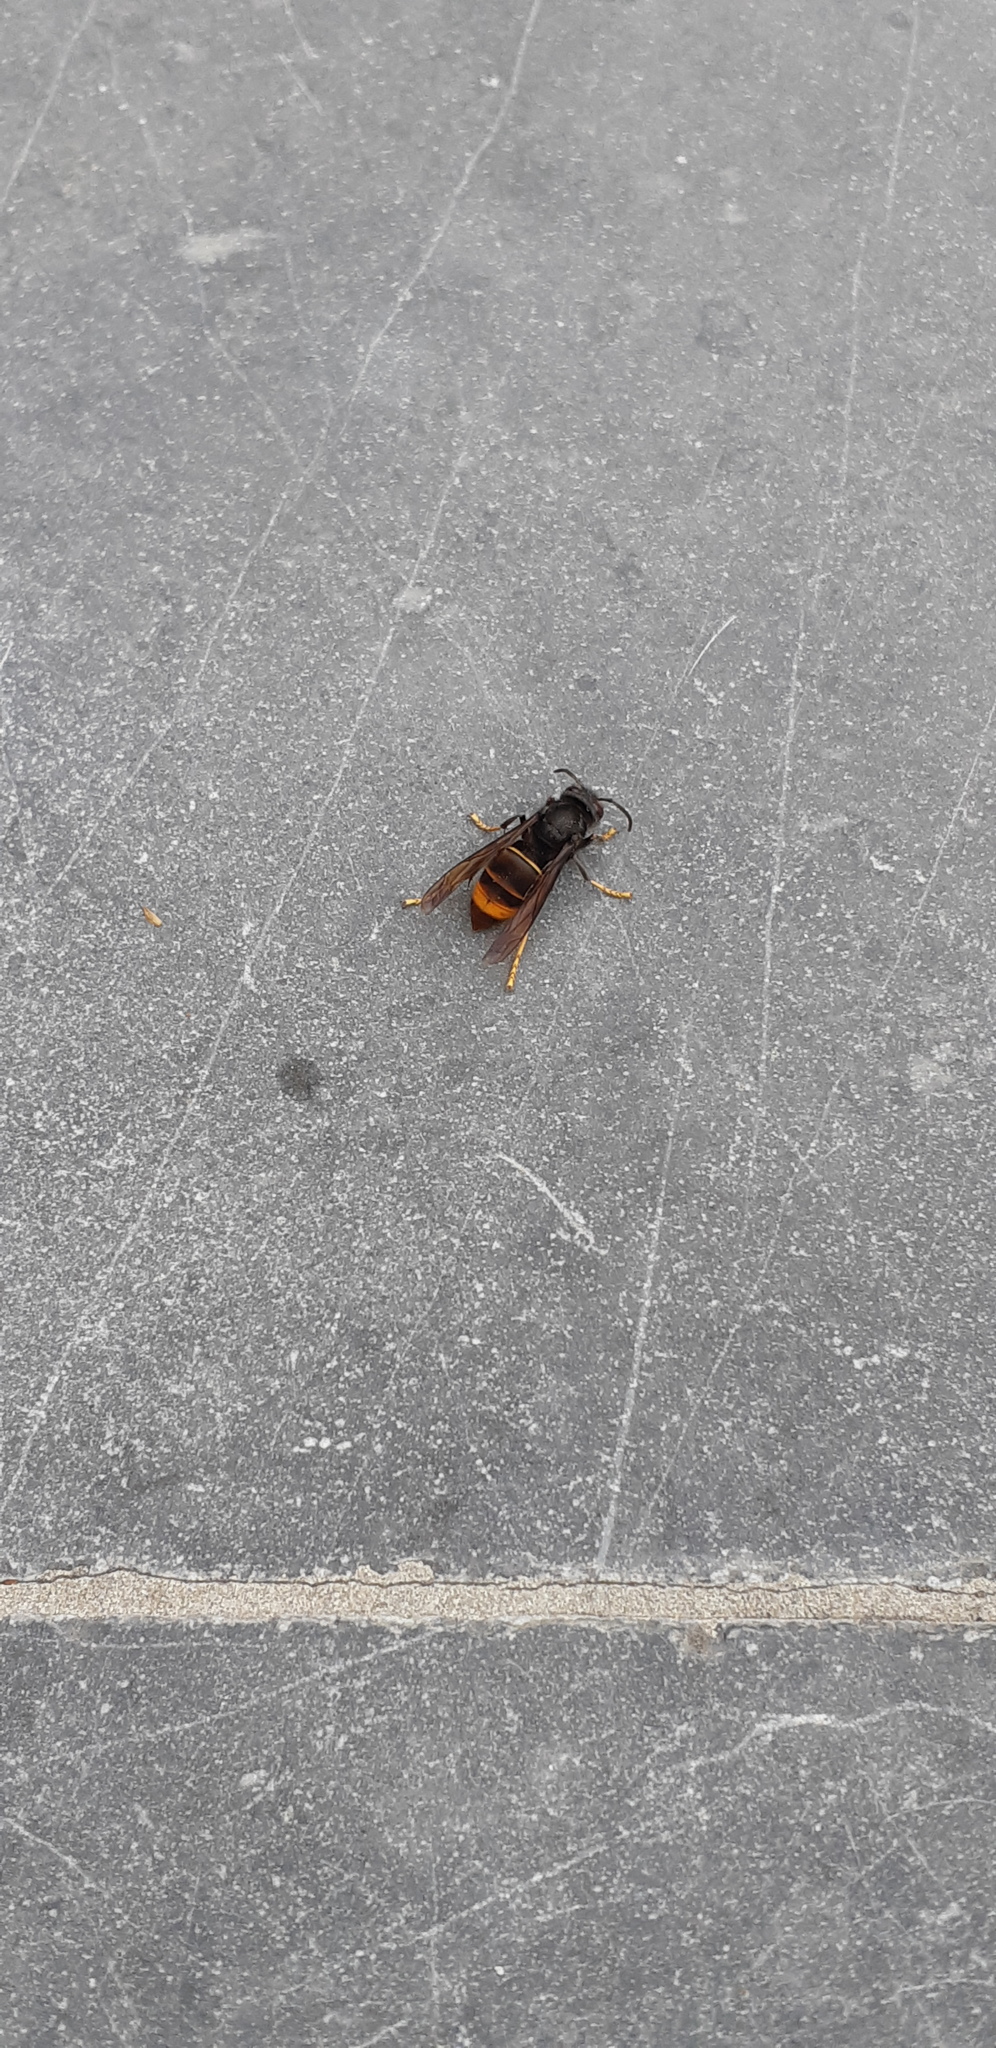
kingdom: Animalia
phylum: Arthropoda
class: Insecta
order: Hymenoptera
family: Vespidae
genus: Vespa
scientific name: Vespa velutina
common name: Asian hornet
